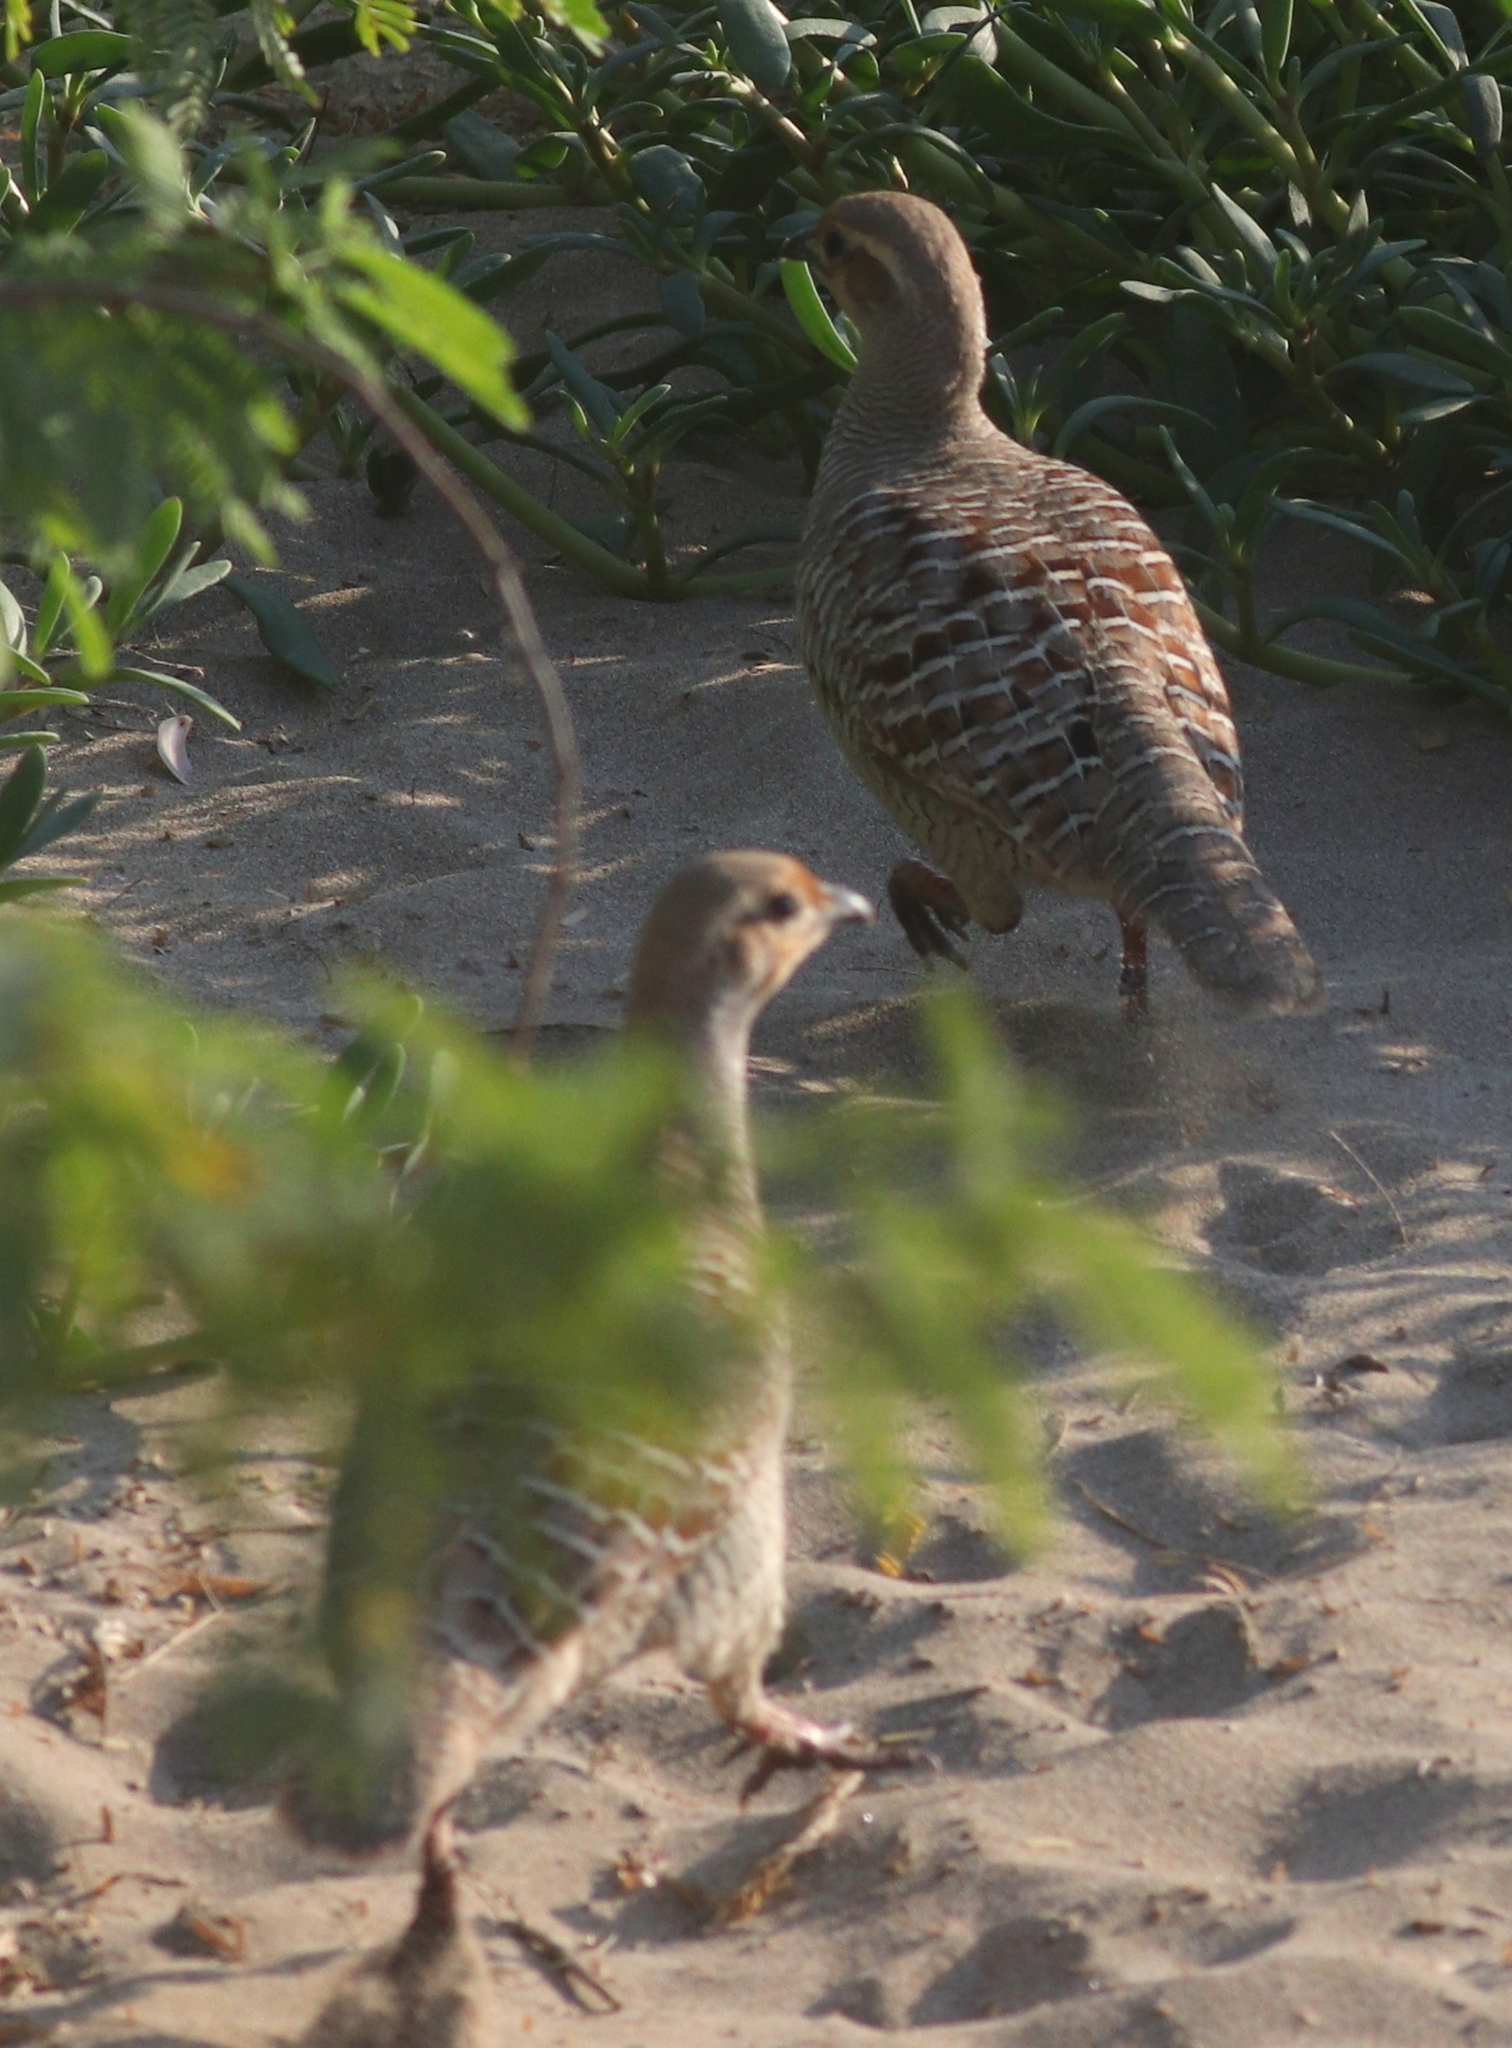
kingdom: Animalia
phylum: Chordata
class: Aves
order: Galliformes
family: Phasianidae
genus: Ortygornis
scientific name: Ortygornis pondicerianus
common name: Grey francolin
